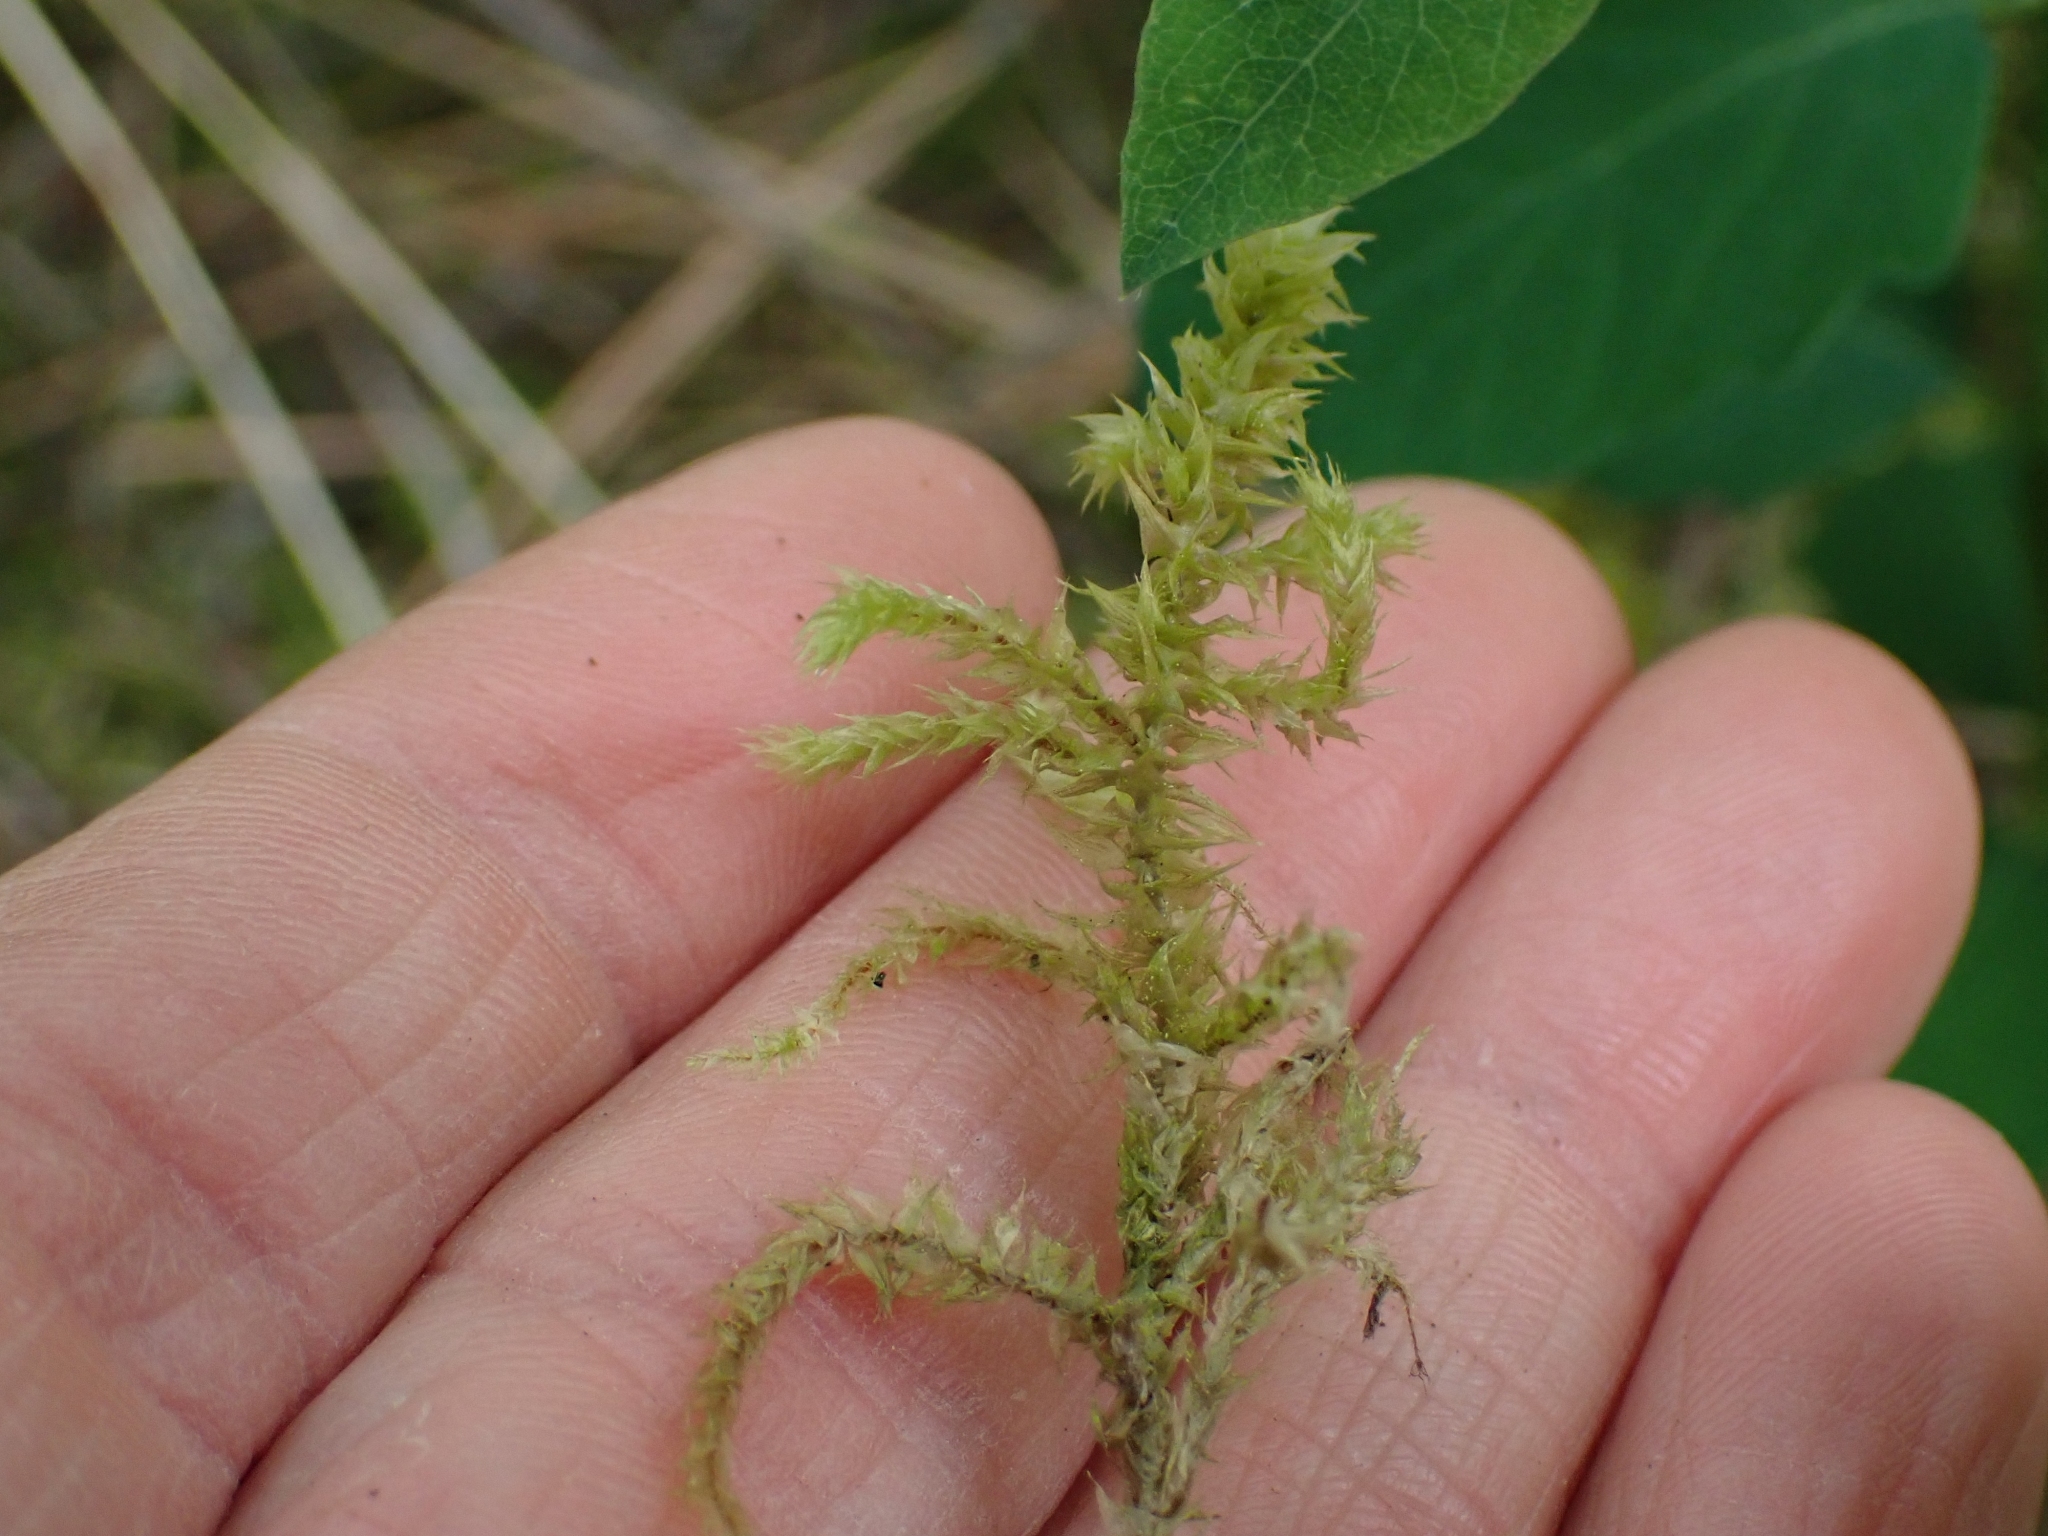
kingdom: Plantae
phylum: Bryophyta
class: Bryopsida
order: Hypnales
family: Hylocomiaceae
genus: Hylocomiadelphus
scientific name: Hylocomiadelphus triquetrus
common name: Rough goose neck moss
